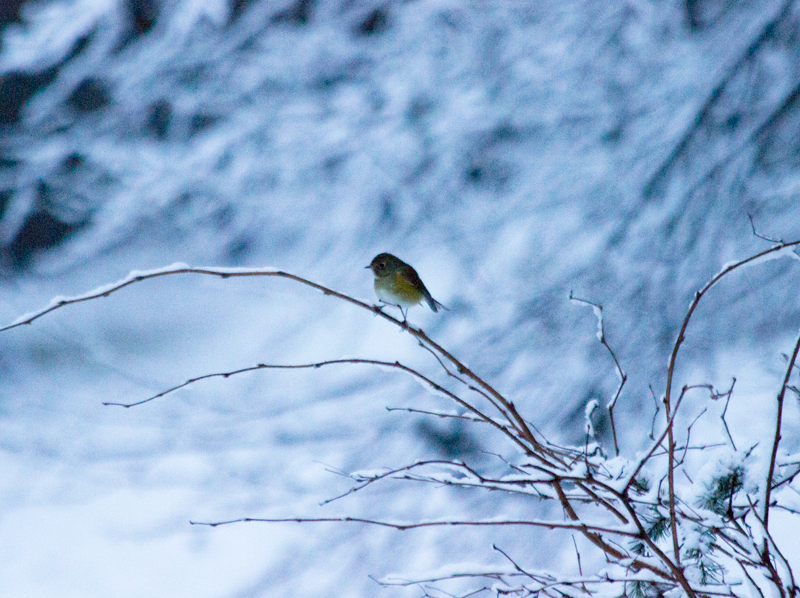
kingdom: Animalia
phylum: Chordata
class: Aves
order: Passeriformes
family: Muscicapidae
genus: Tarsiger
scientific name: Tarsiger cyanurus
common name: Red-flanked bluetail
